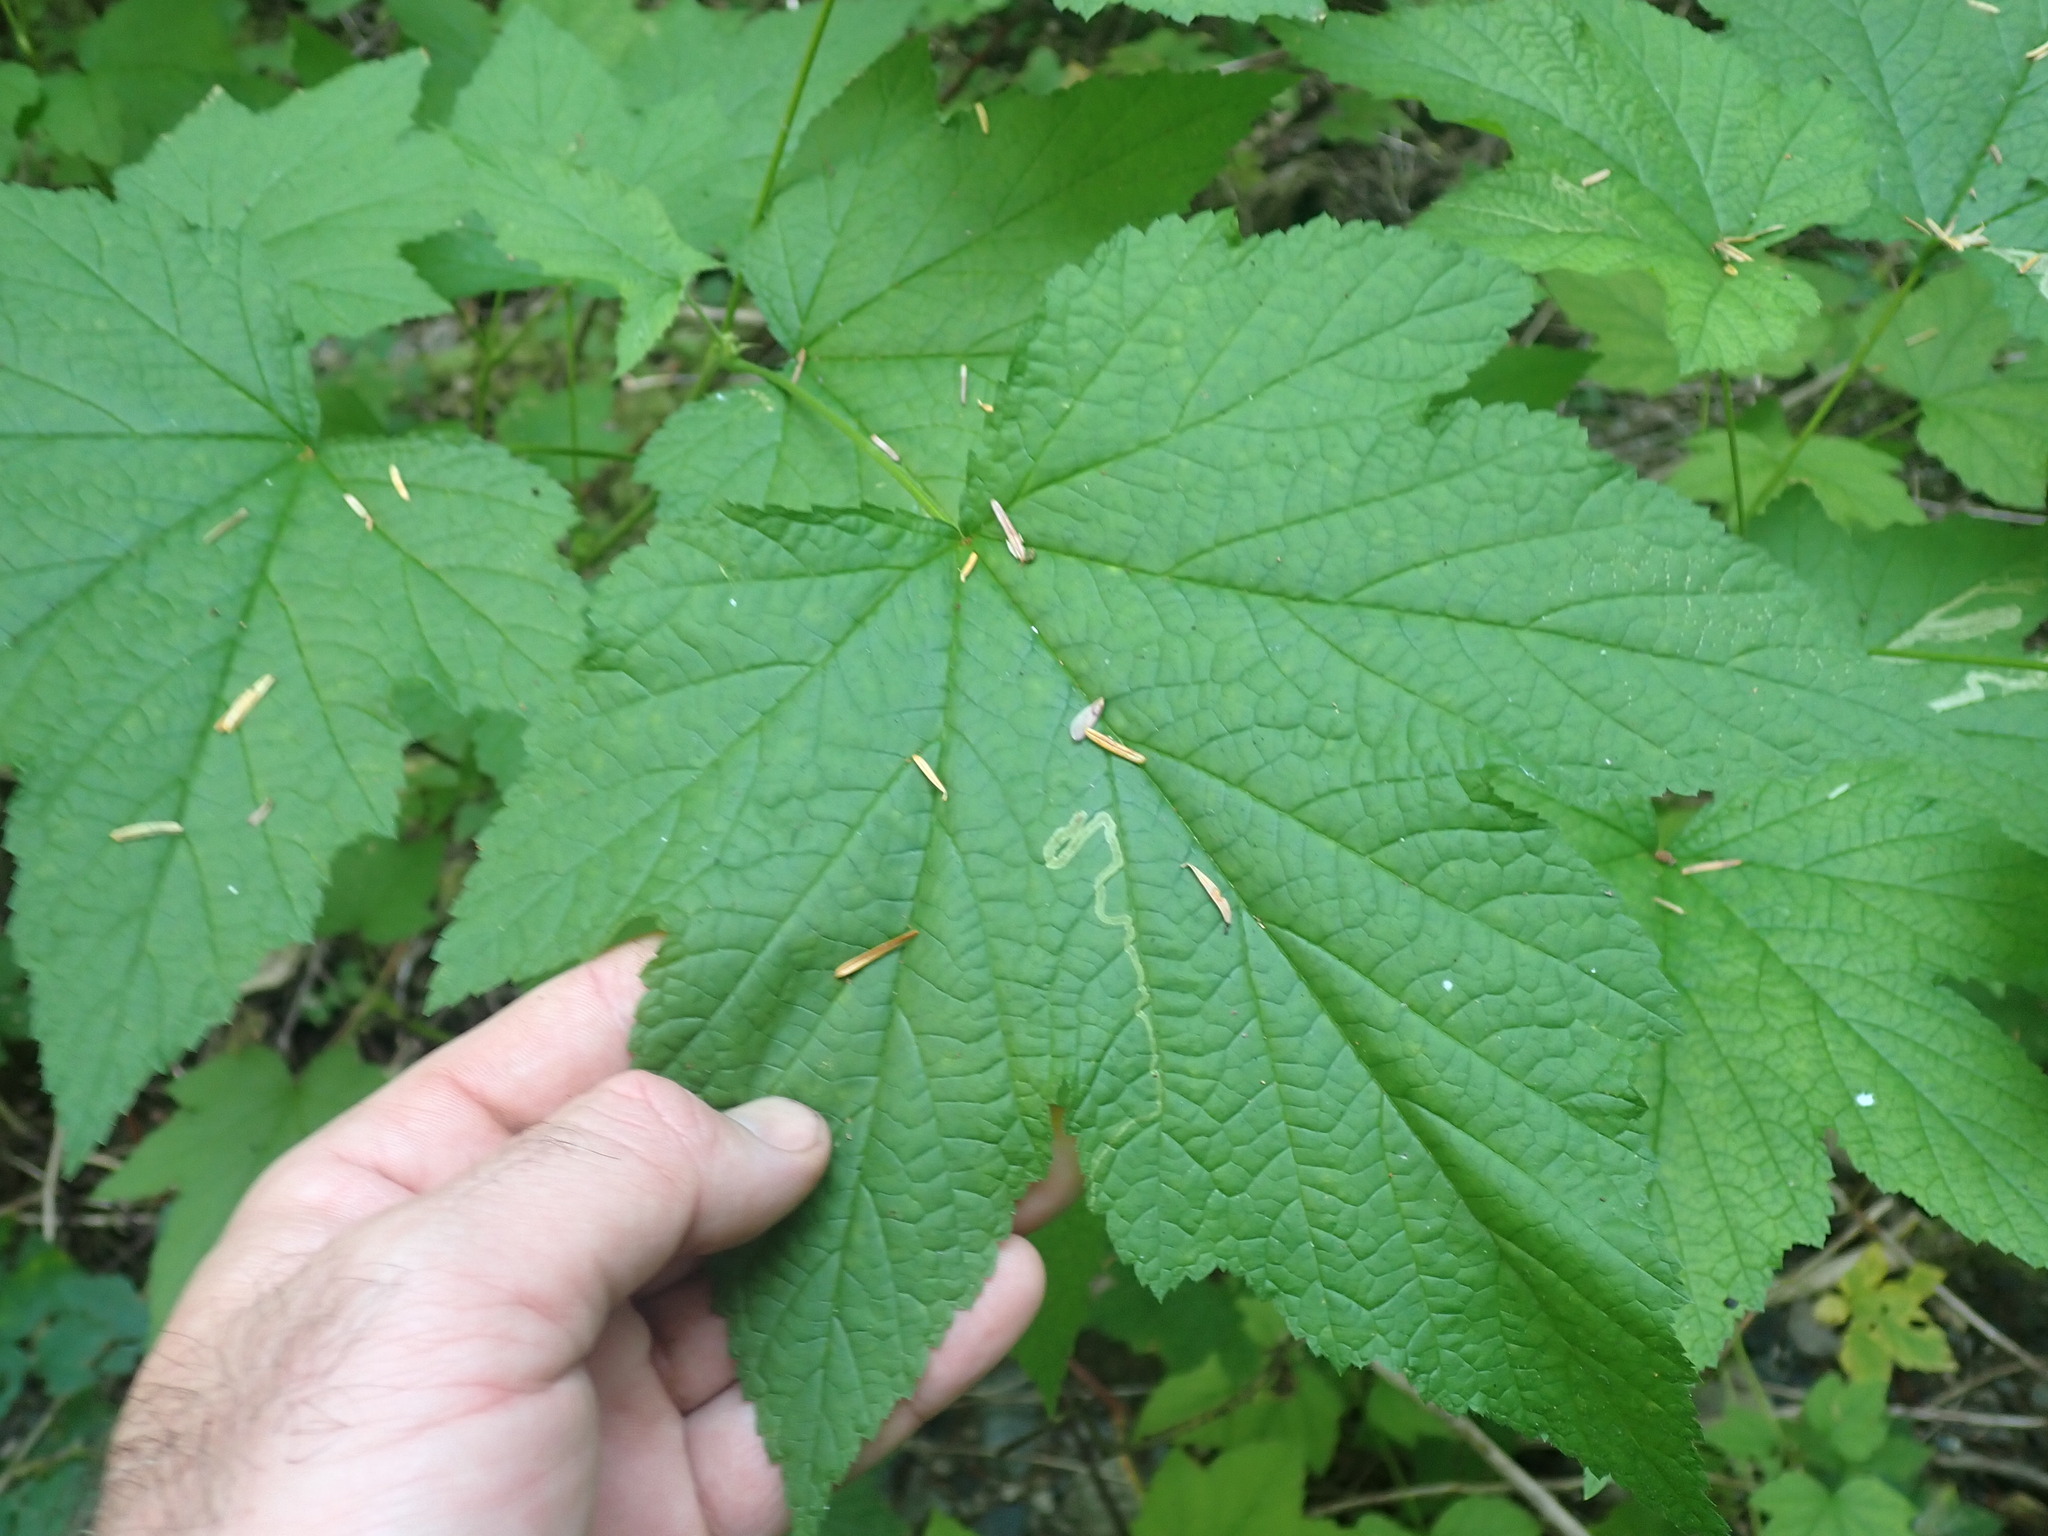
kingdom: Plantae
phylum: Tracheophyta
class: Magnoliopsida
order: Saxifragales
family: Grossulariaceae
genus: Ribes
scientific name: Ribes bracteosum
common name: California black currant
